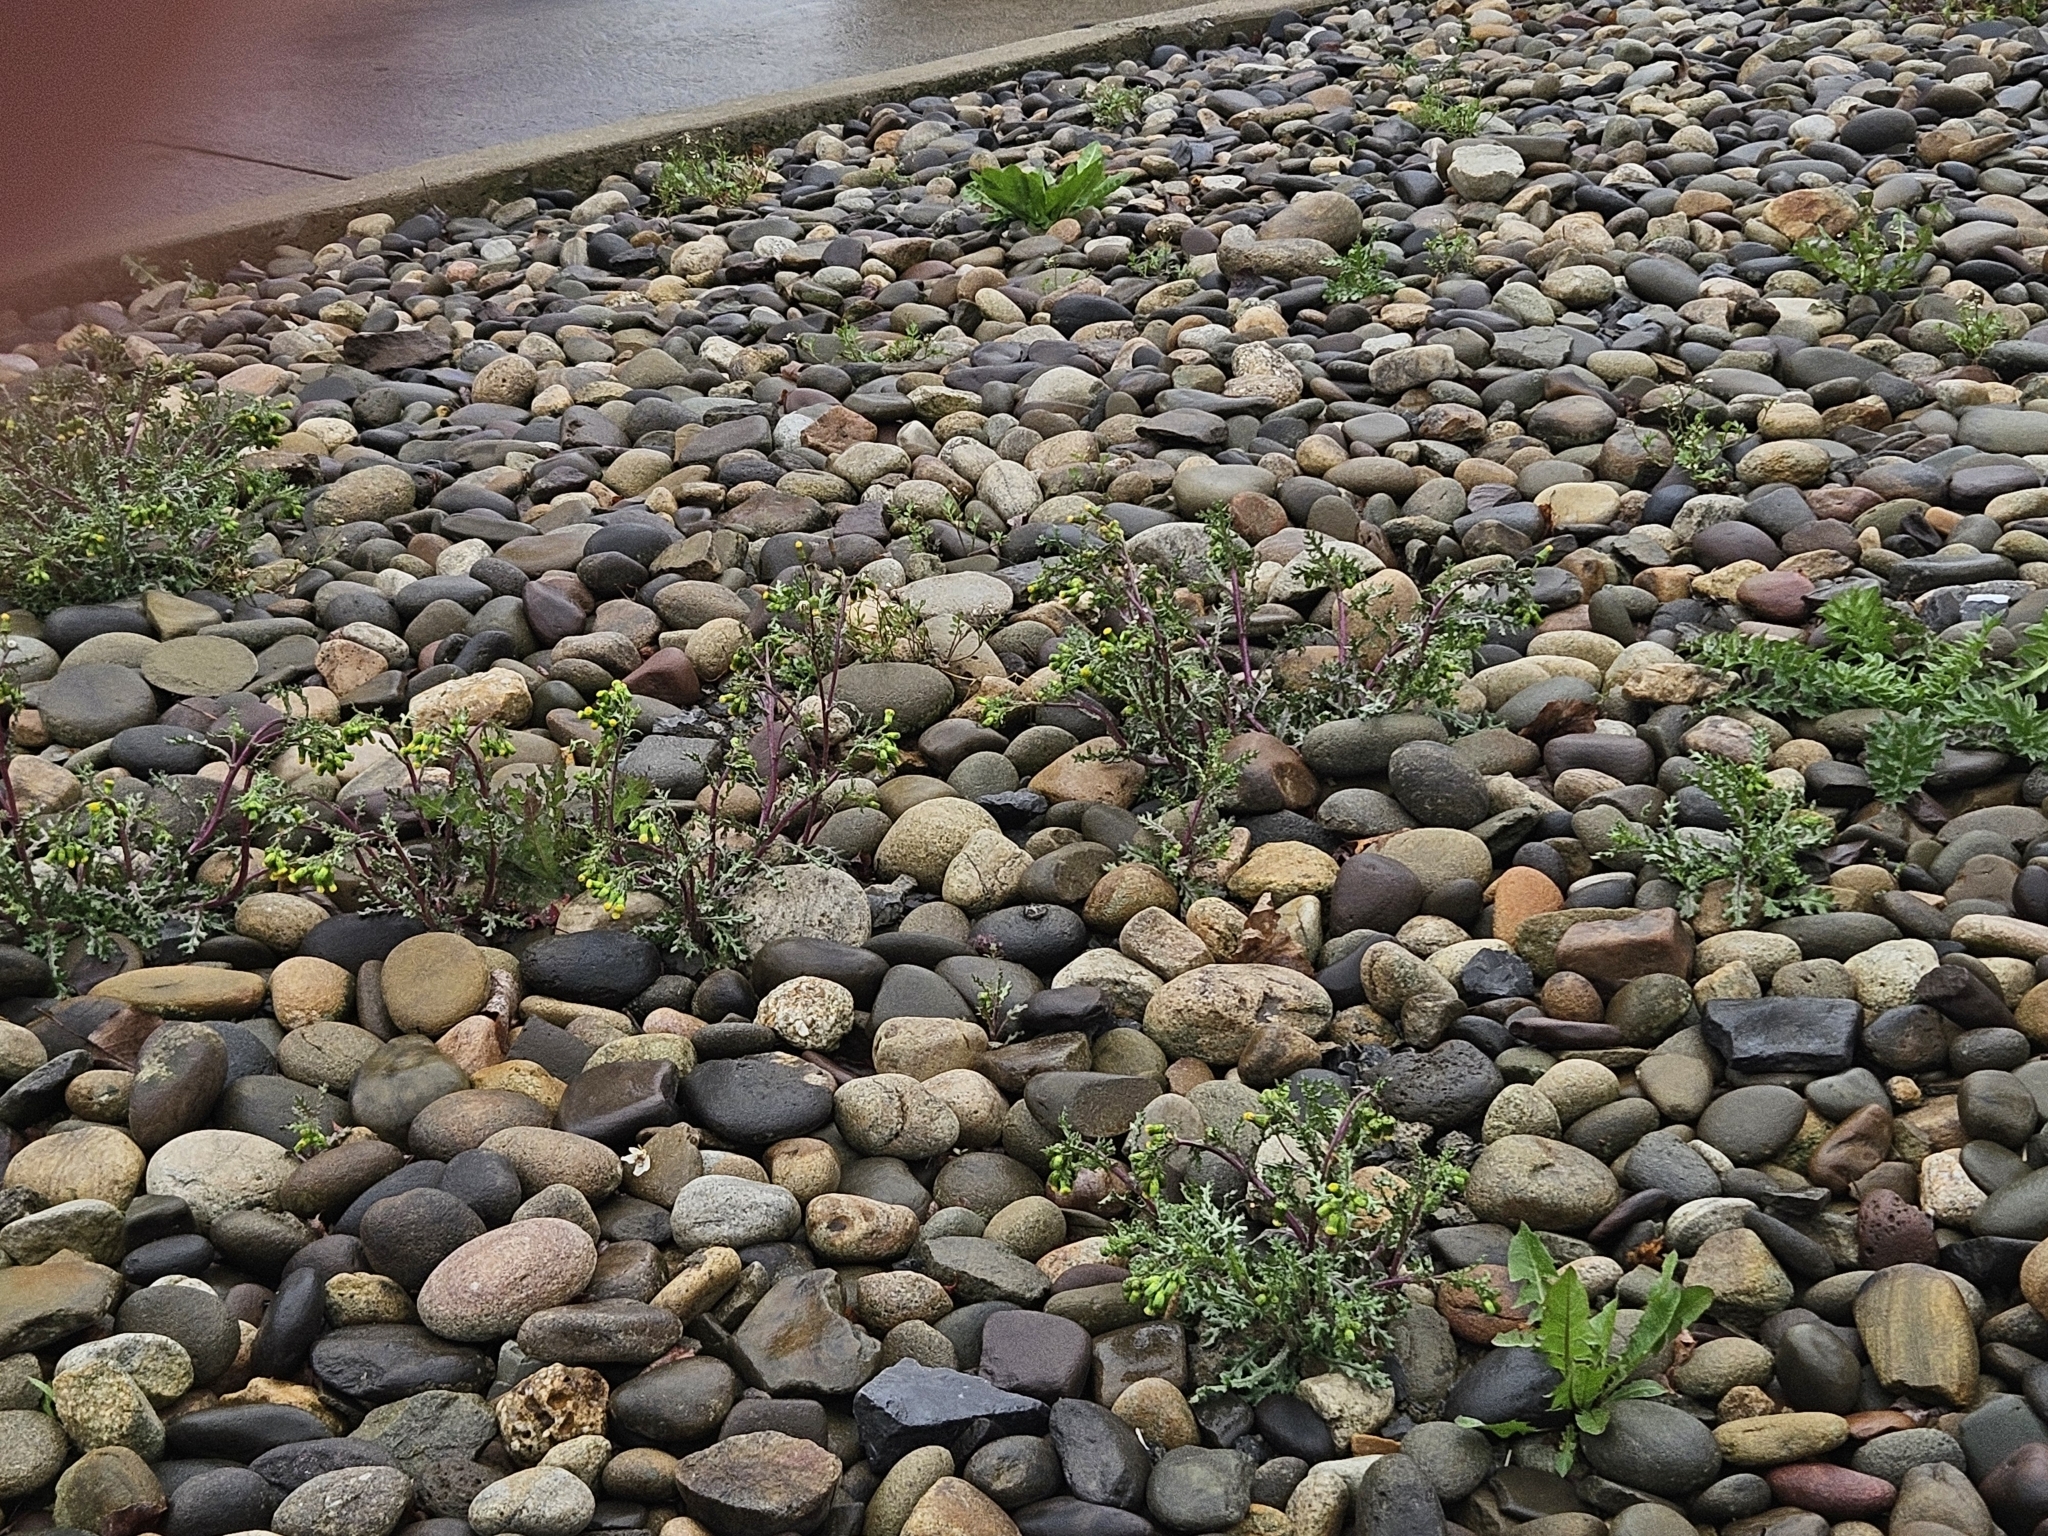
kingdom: Plantae
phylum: Tracheophyta
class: Magnoliopsida
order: Asterales
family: Asteraceae
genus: Senecio
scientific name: Senecio vulgaris
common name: Old-man-in-the-spring
